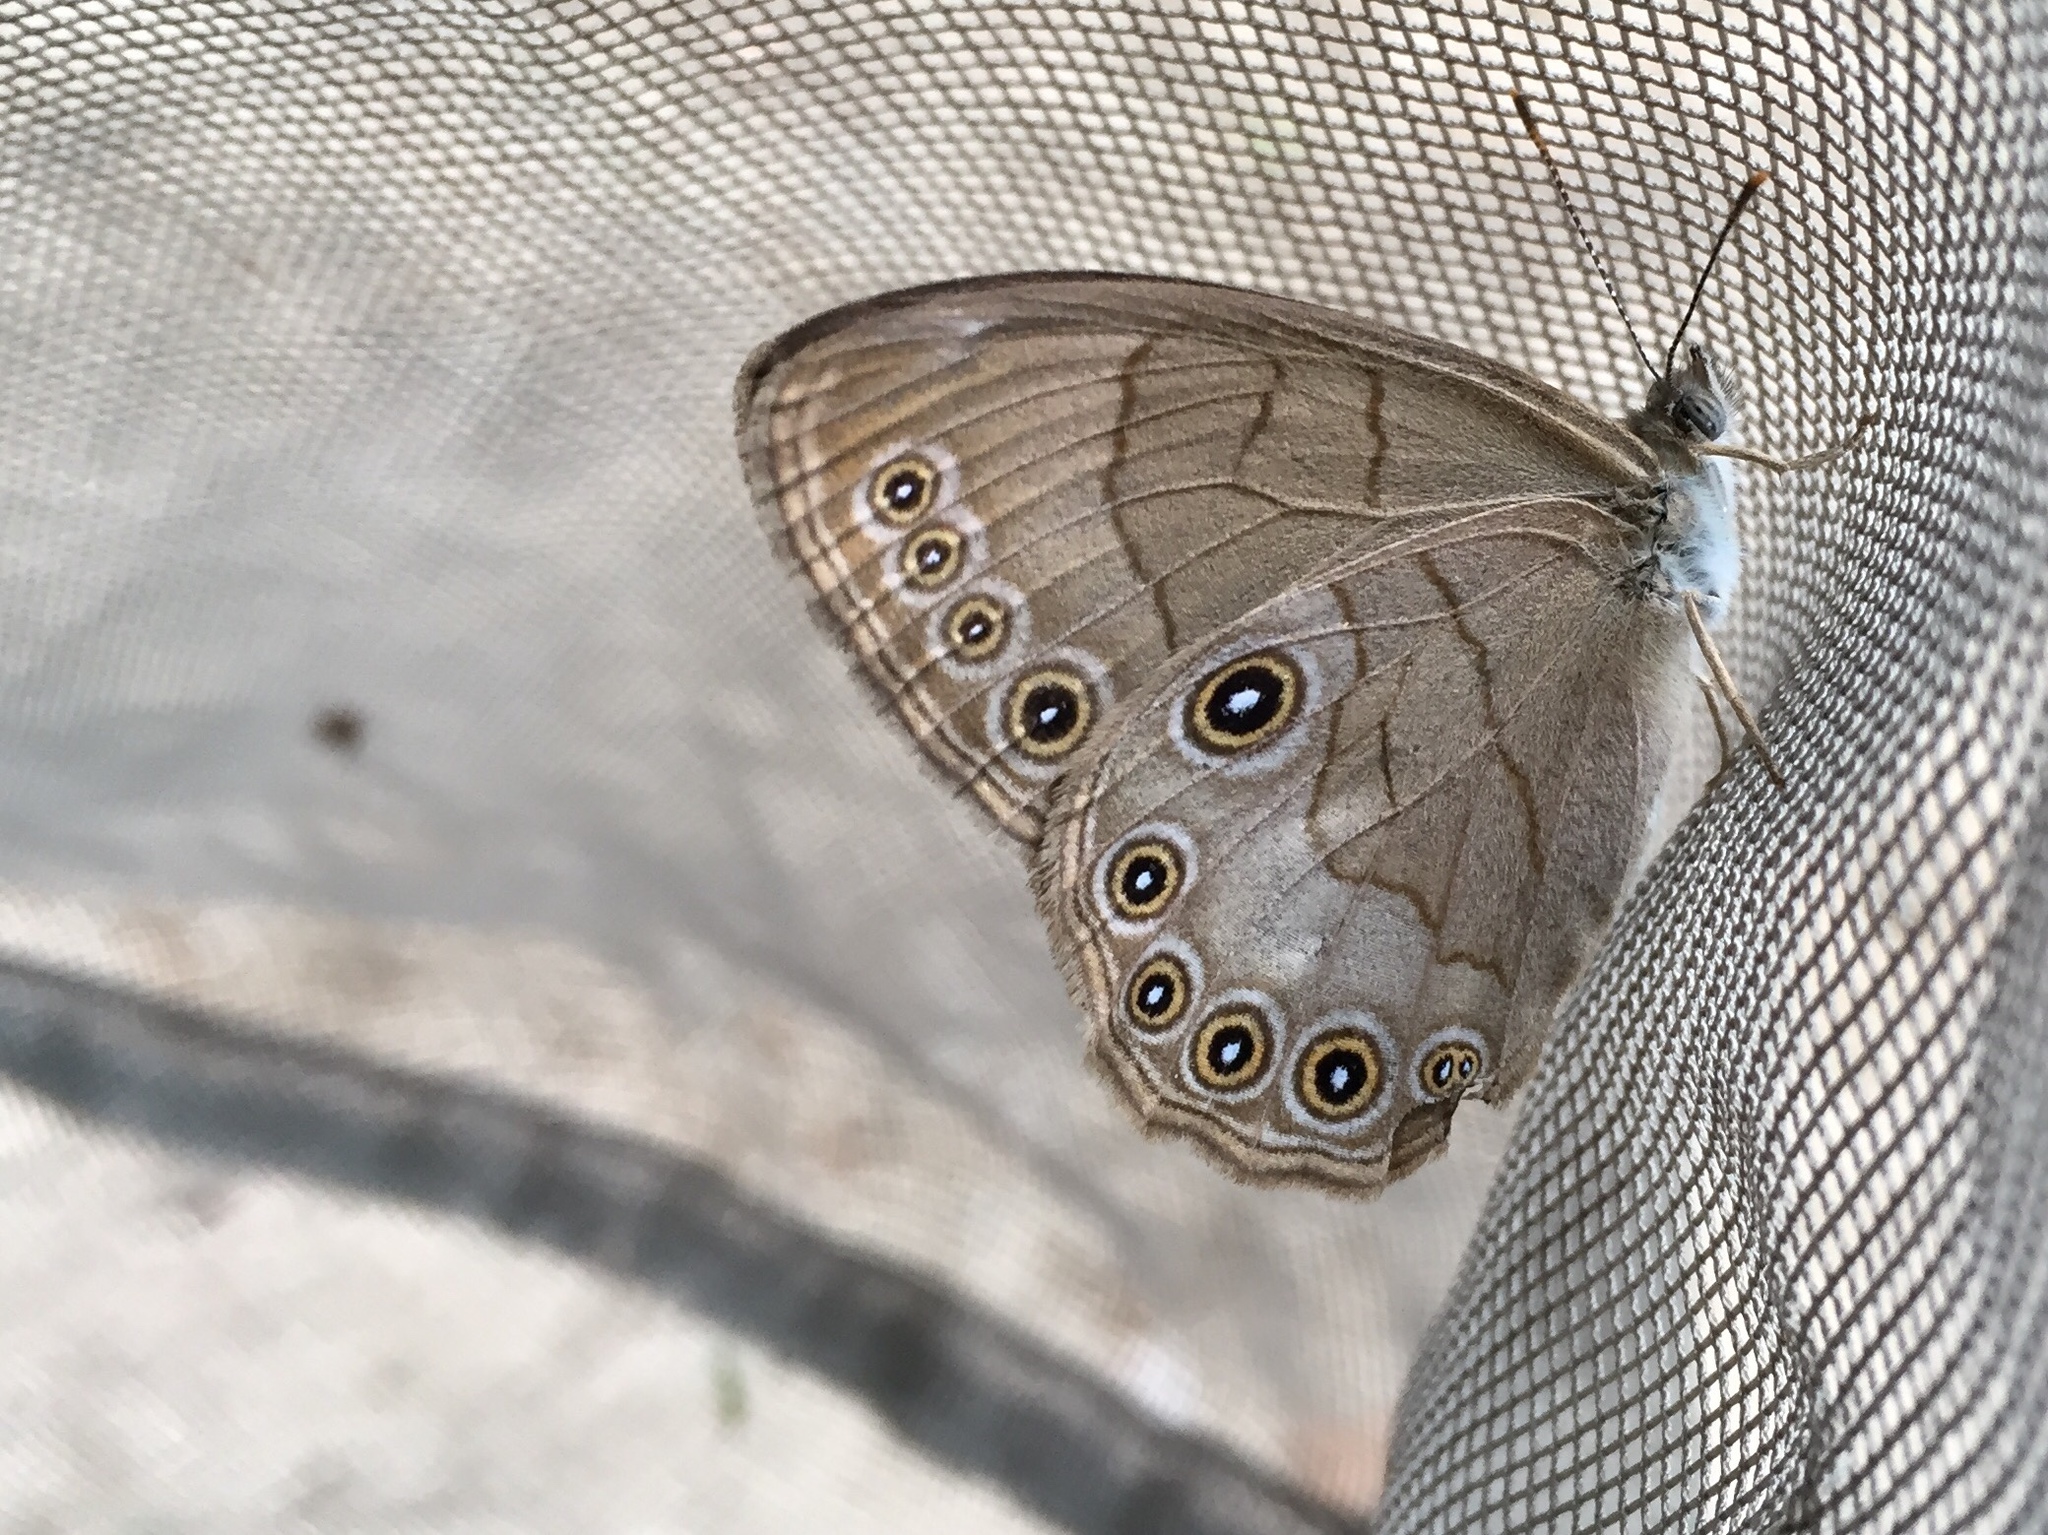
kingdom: Animalia
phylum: Arthropoda
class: Insecta
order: Lepidoptera
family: Nymphalidae
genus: Lethe
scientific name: Lethe eurydice
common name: Eyed brown
